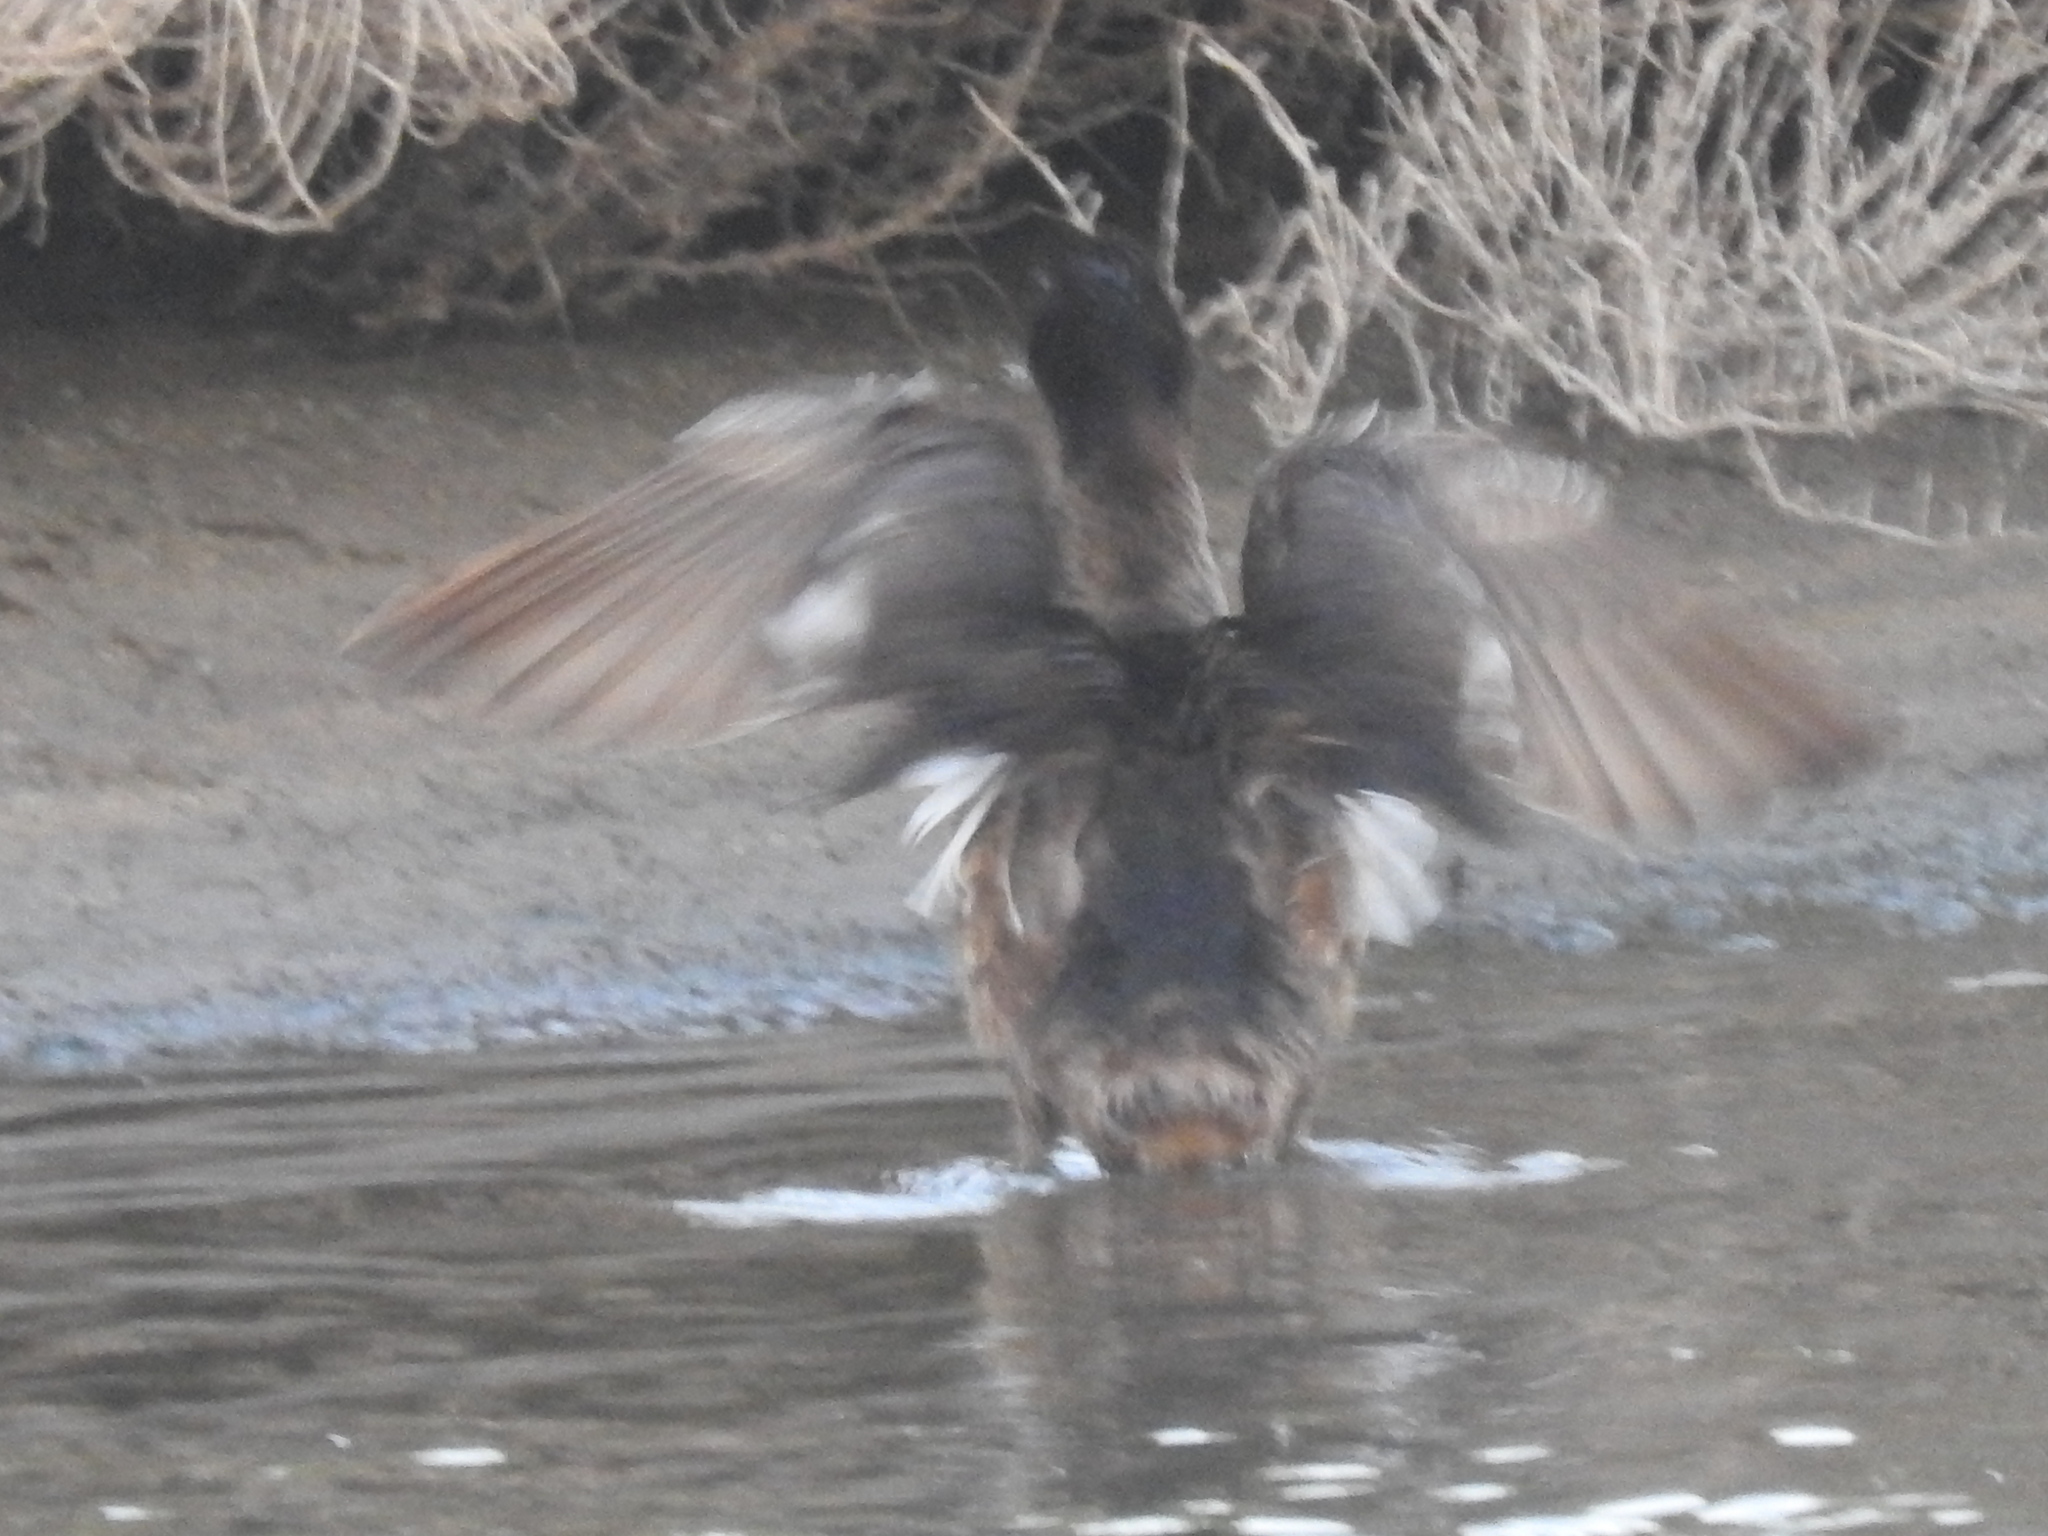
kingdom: Animalia
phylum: Chordata
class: Aves
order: Anseriformes
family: Anatidae
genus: Heteronetta
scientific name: Heteronetta atricapilla
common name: Black-headed duck
